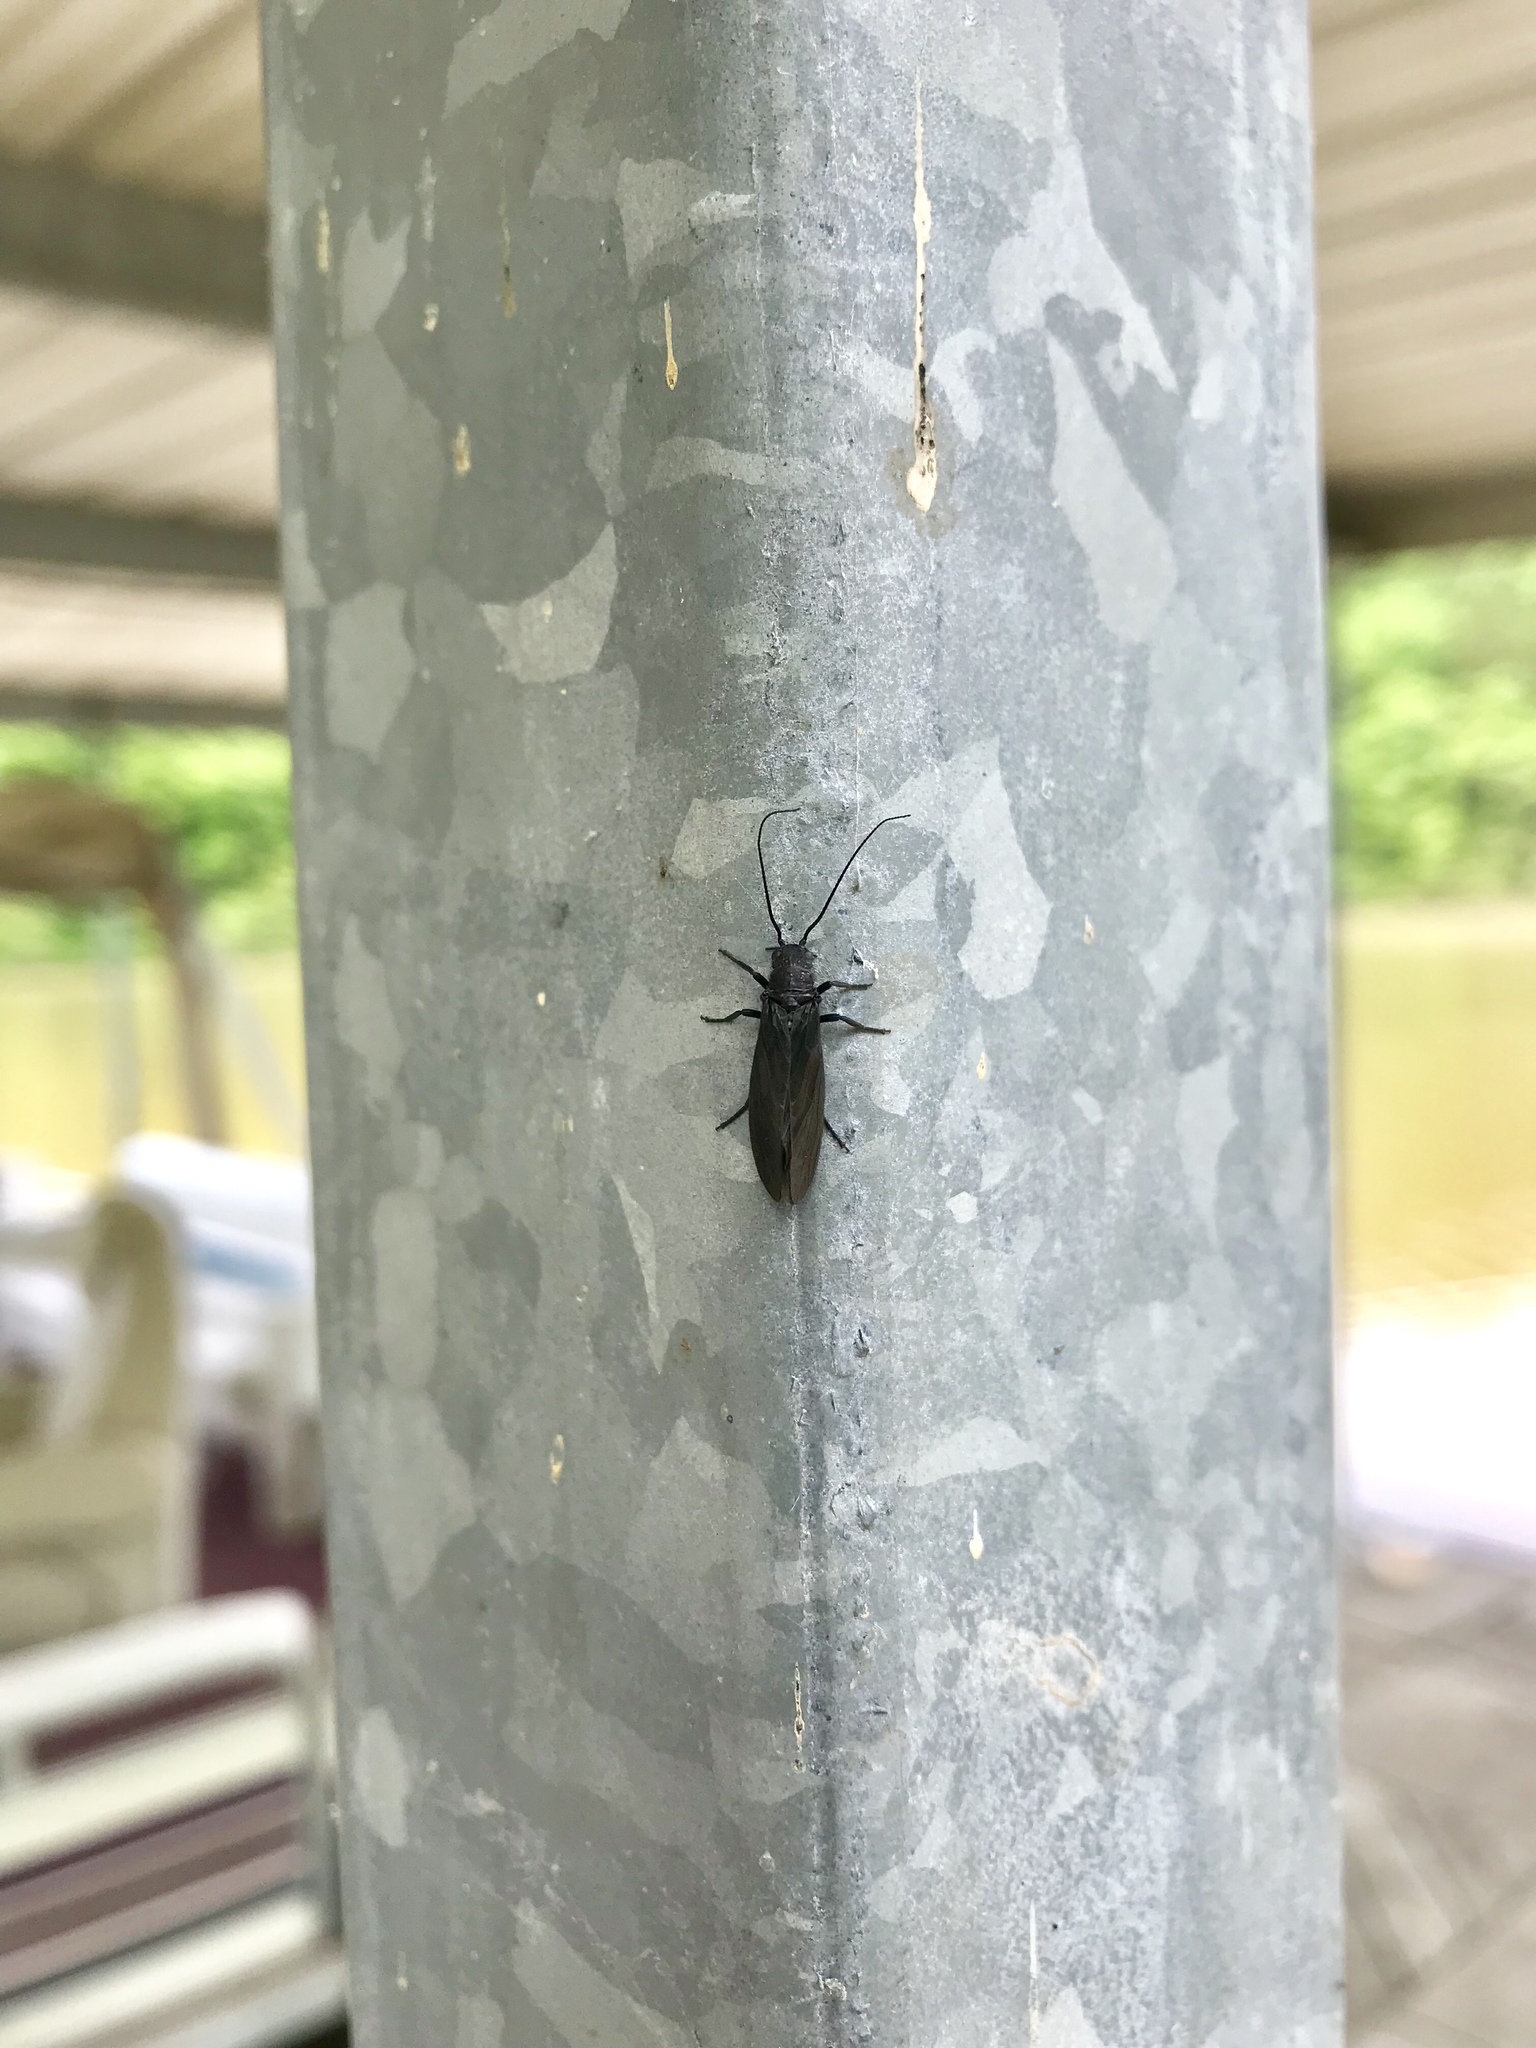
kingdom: Animalia
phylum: Arthropoda
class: Insecta
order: Megaloptera
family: Sialidae
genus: Sialis
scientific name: Sialis
